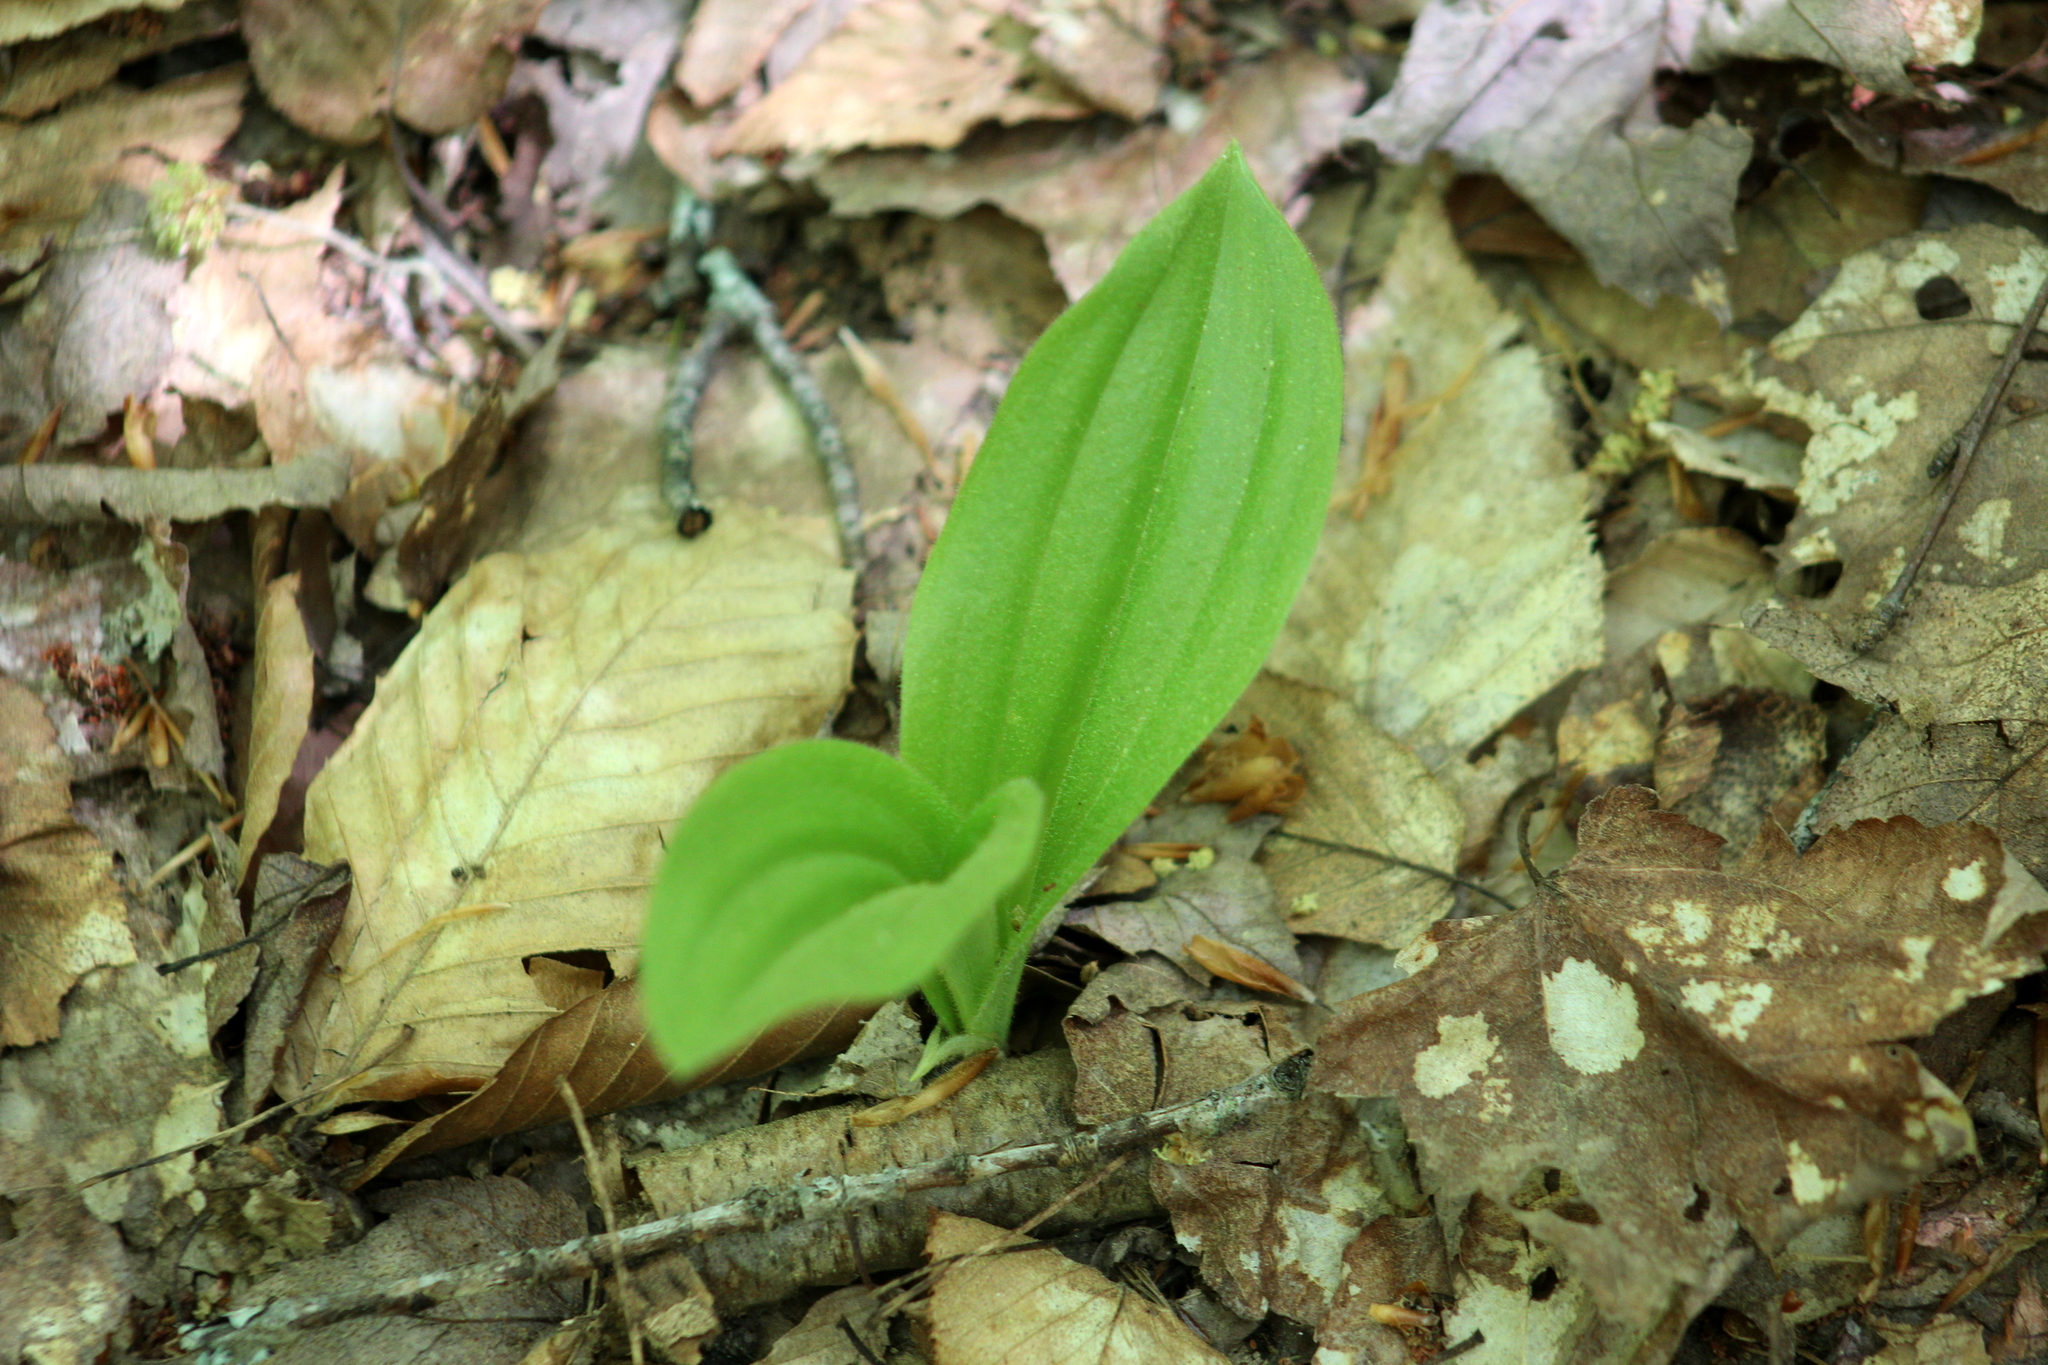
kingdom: Plantae
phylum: Tracheophyta
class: Liliopsida
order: Asparagales
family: Orchidaceae
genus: Cypripedium
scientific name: Cypripedium acaule
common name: Pink lady's-slipper
